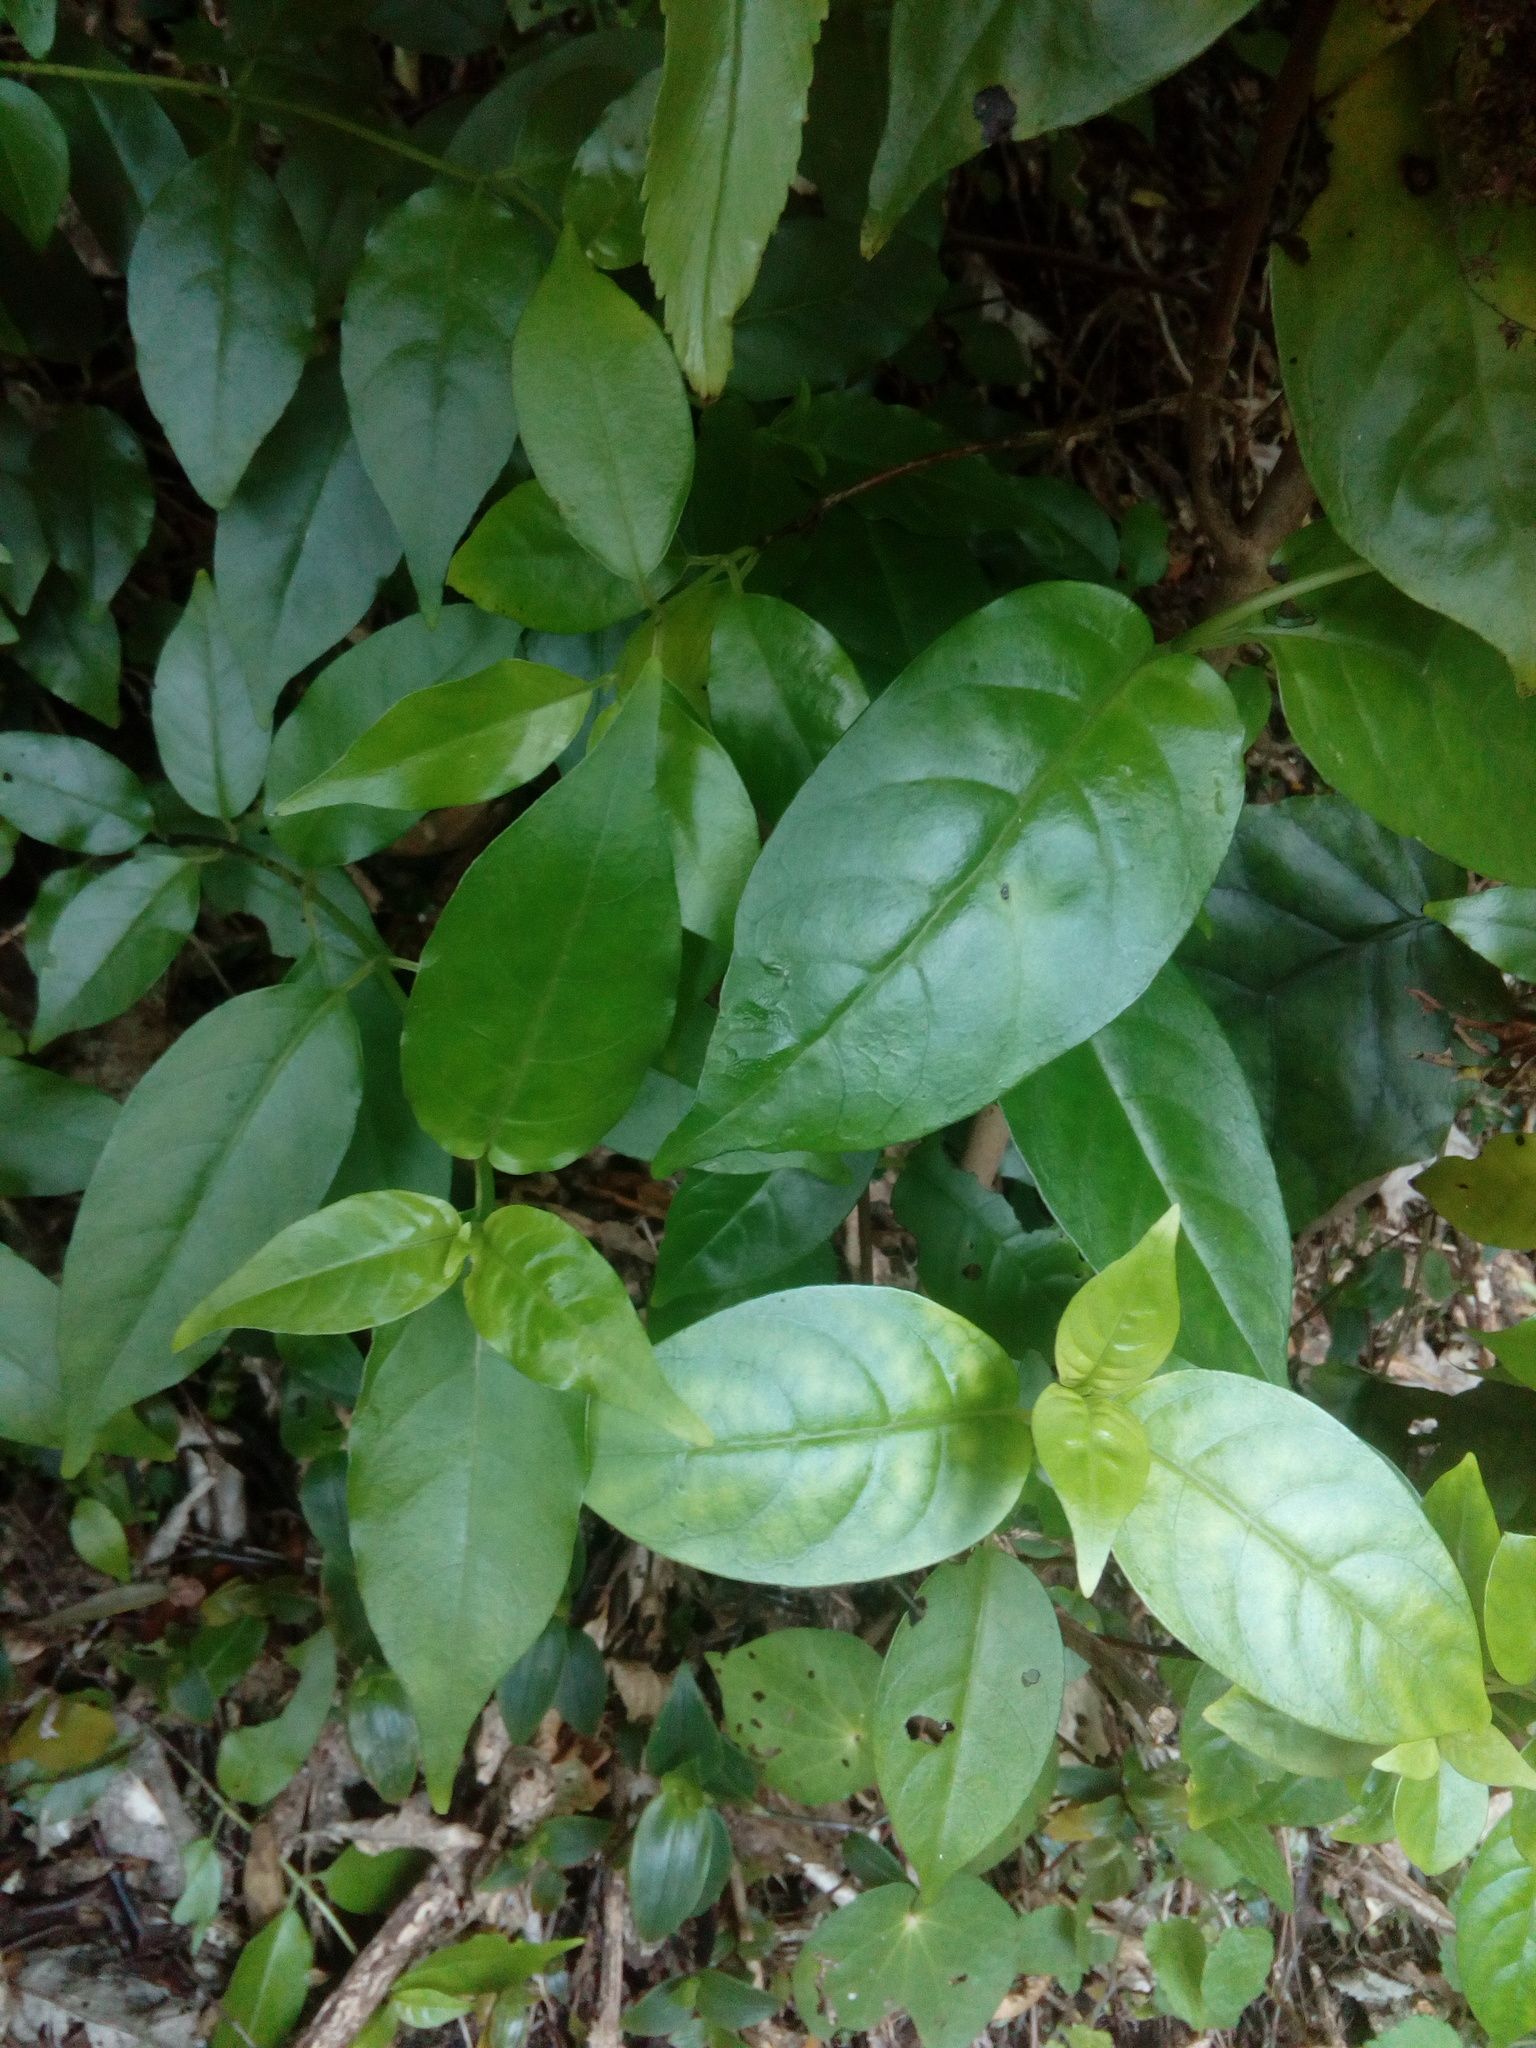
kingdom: Plantae
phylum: Tracheophyta
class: Magnoliopsida
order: Gentianales
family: Loganiaceae
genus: Geniostoma
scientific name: Geniostoma ligustrifolium
